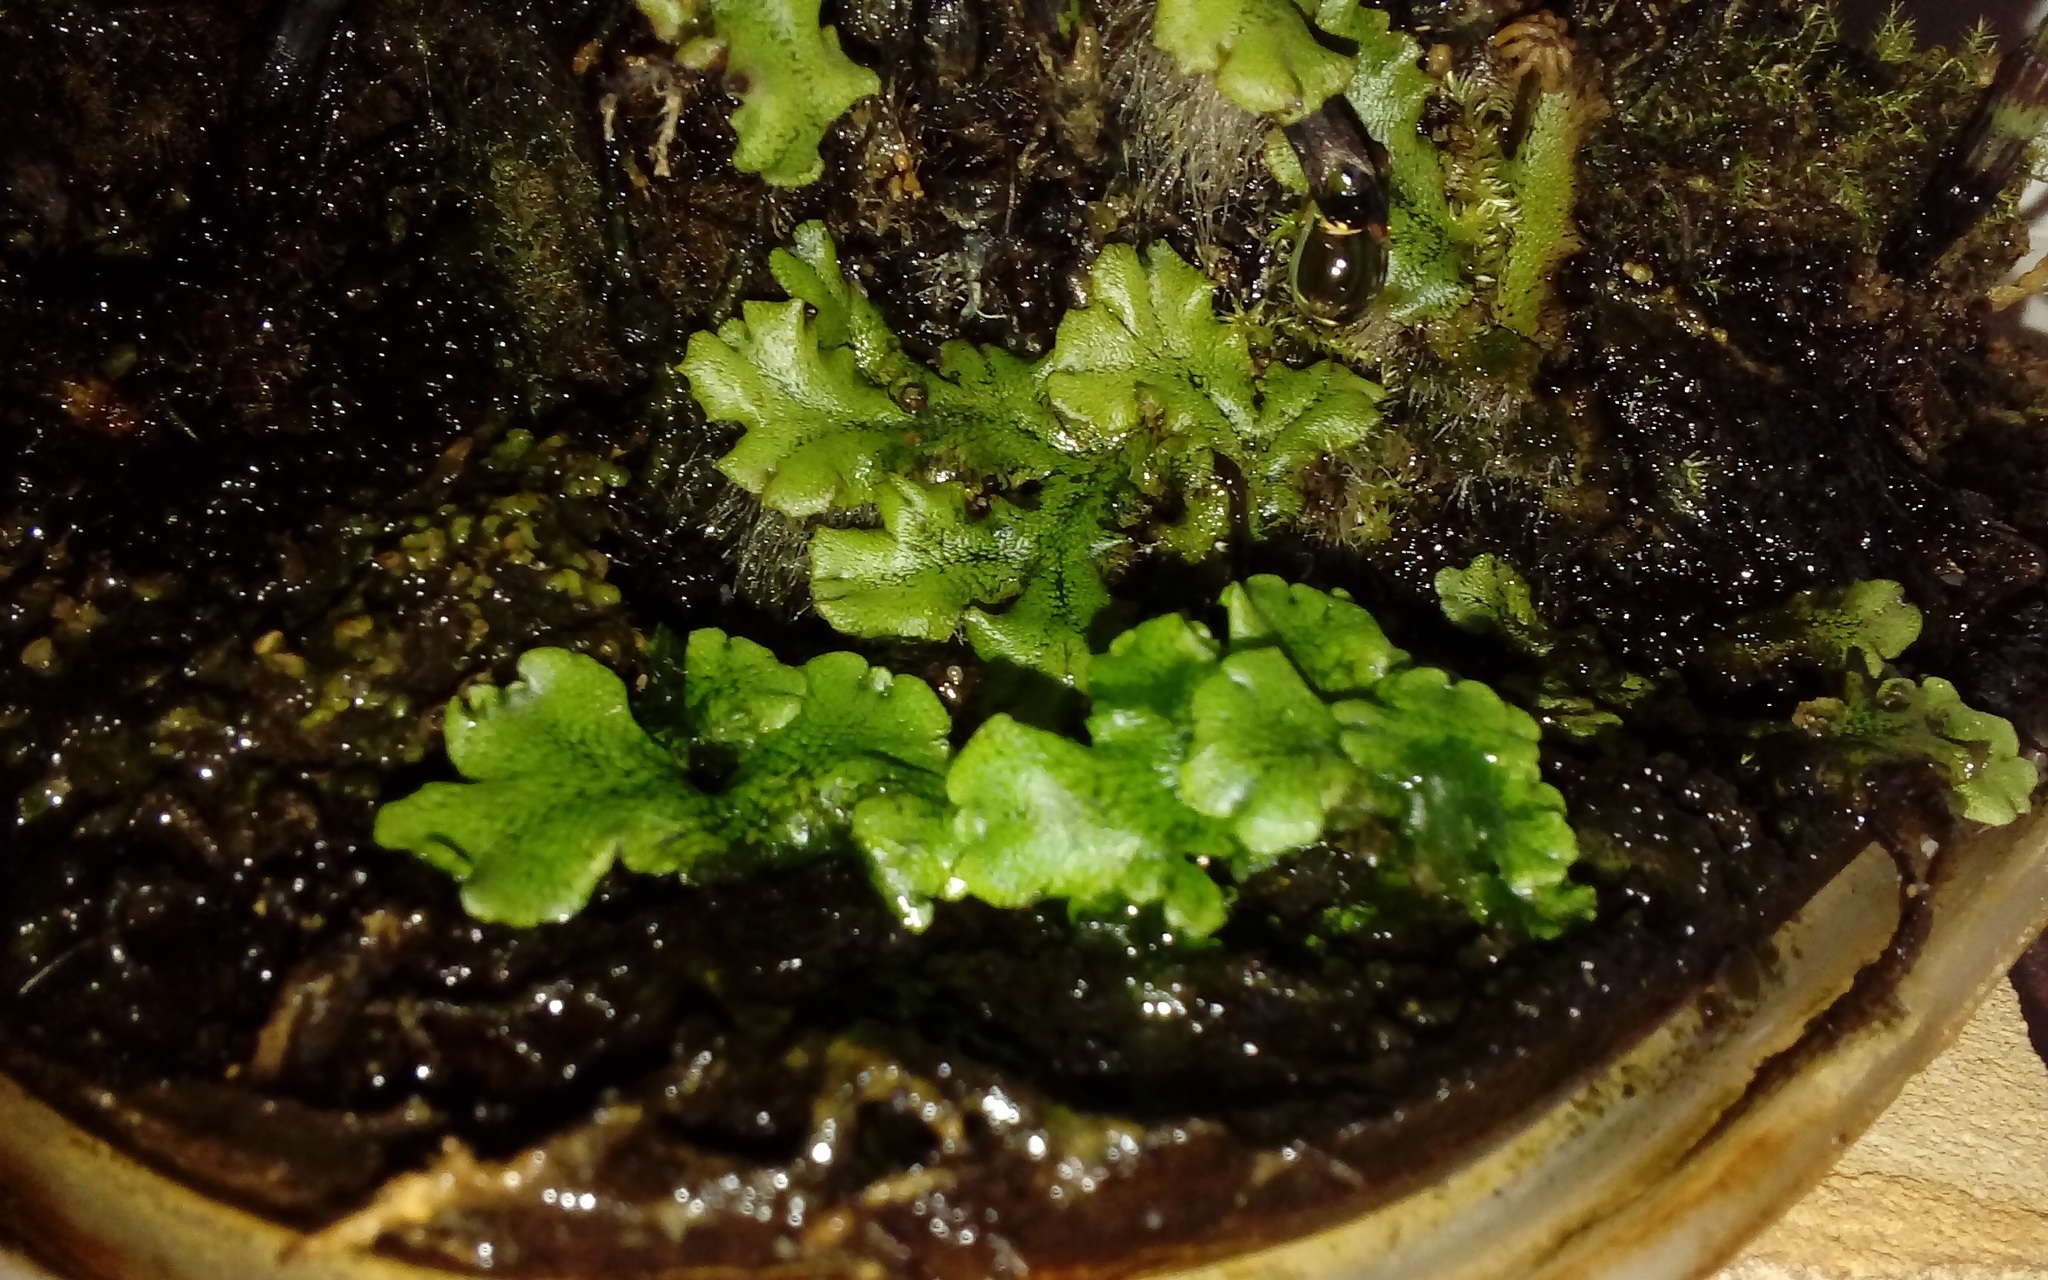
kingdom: Plantae
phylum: Marchantiophyta
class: Marchantiopsida
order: Marchantiales
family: Marchantiaceae
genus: Marchantia
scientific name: Marchantia polymorpha
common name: Common liverwort
